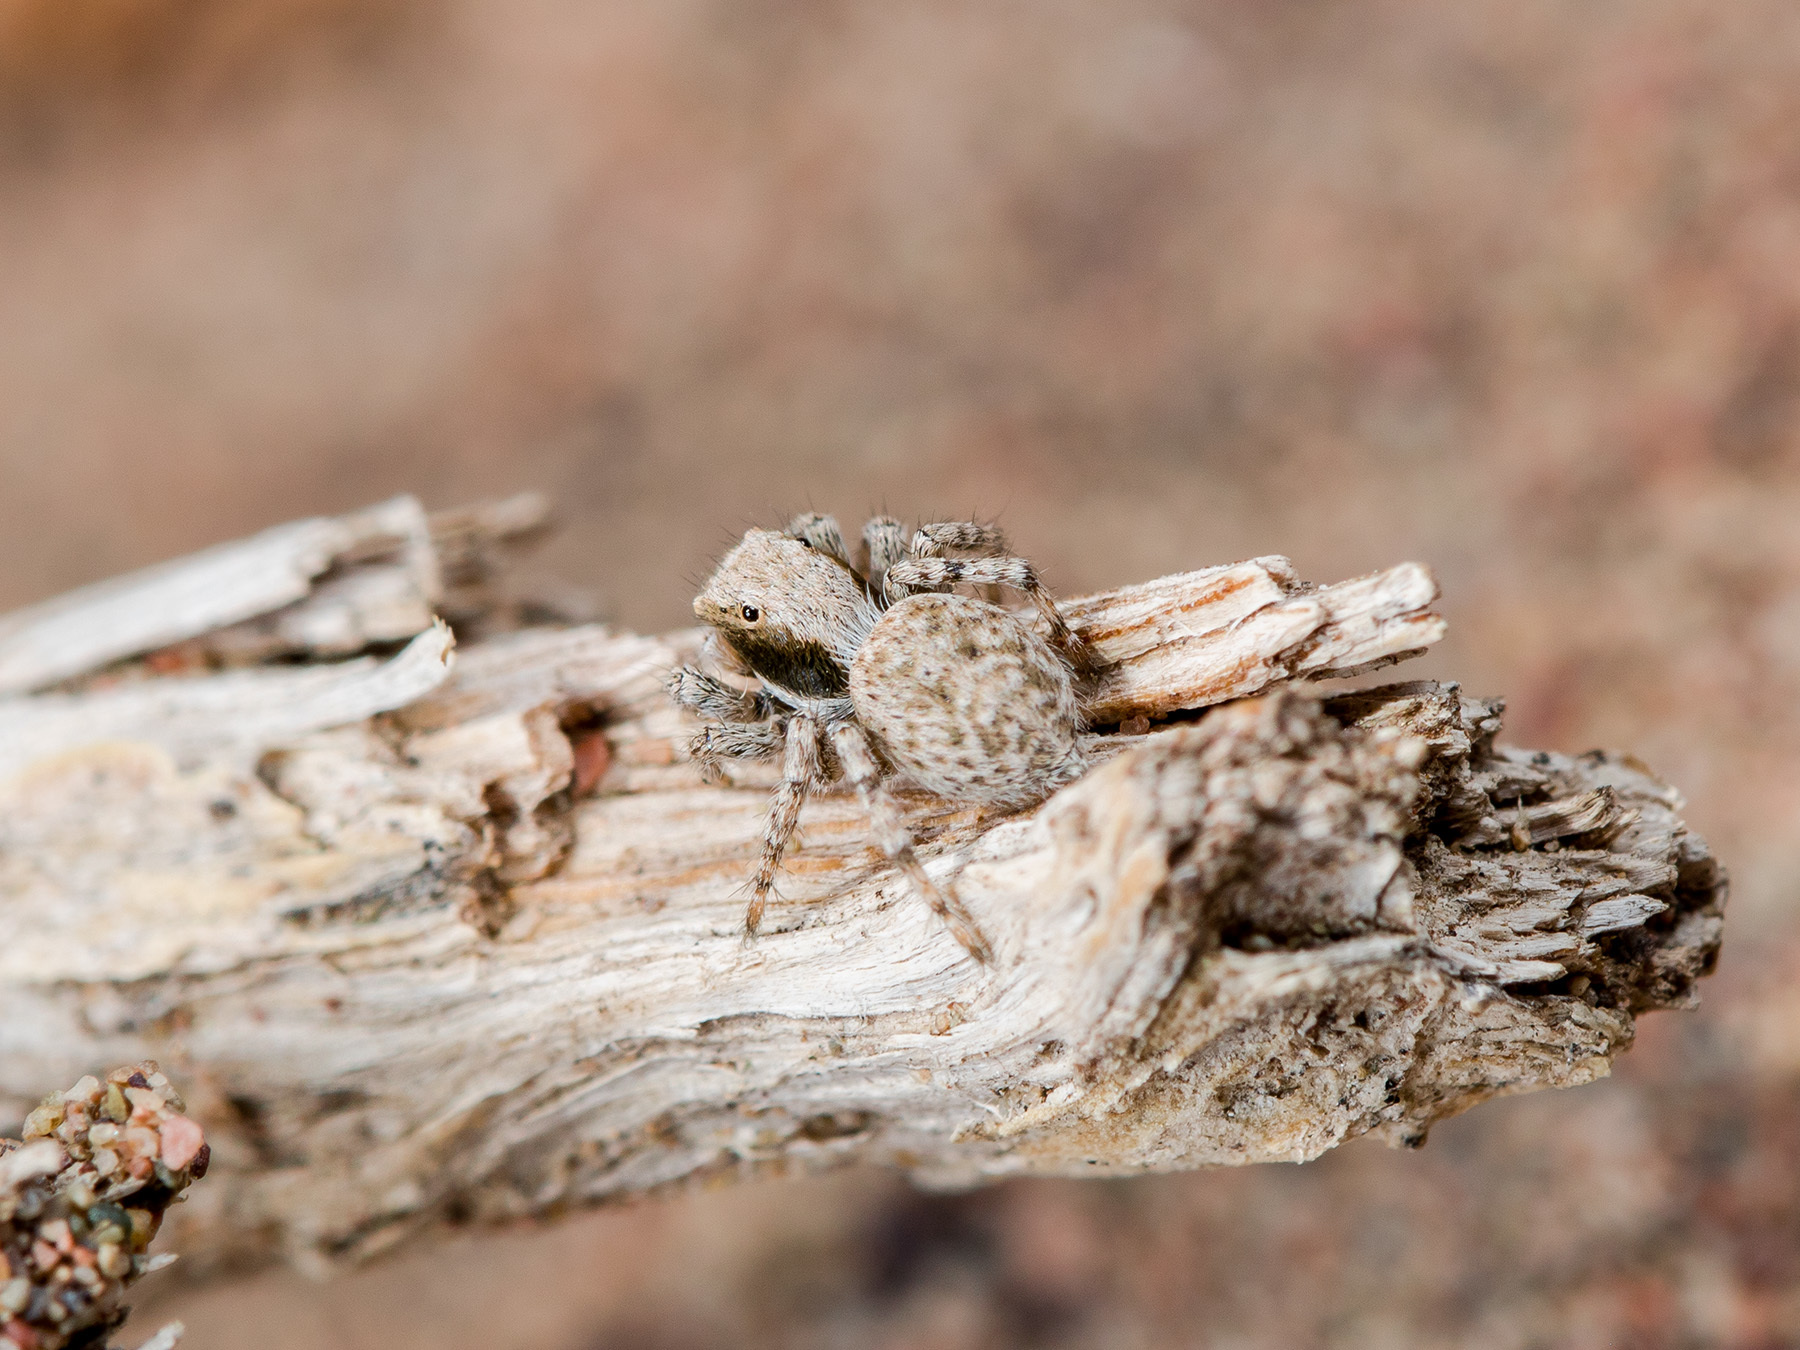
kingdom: Animalia
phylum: Arthropoda
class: Arachnida
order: Araneae
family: Salticidae
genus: Aelurillus
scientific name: Aelurillus andreevae
